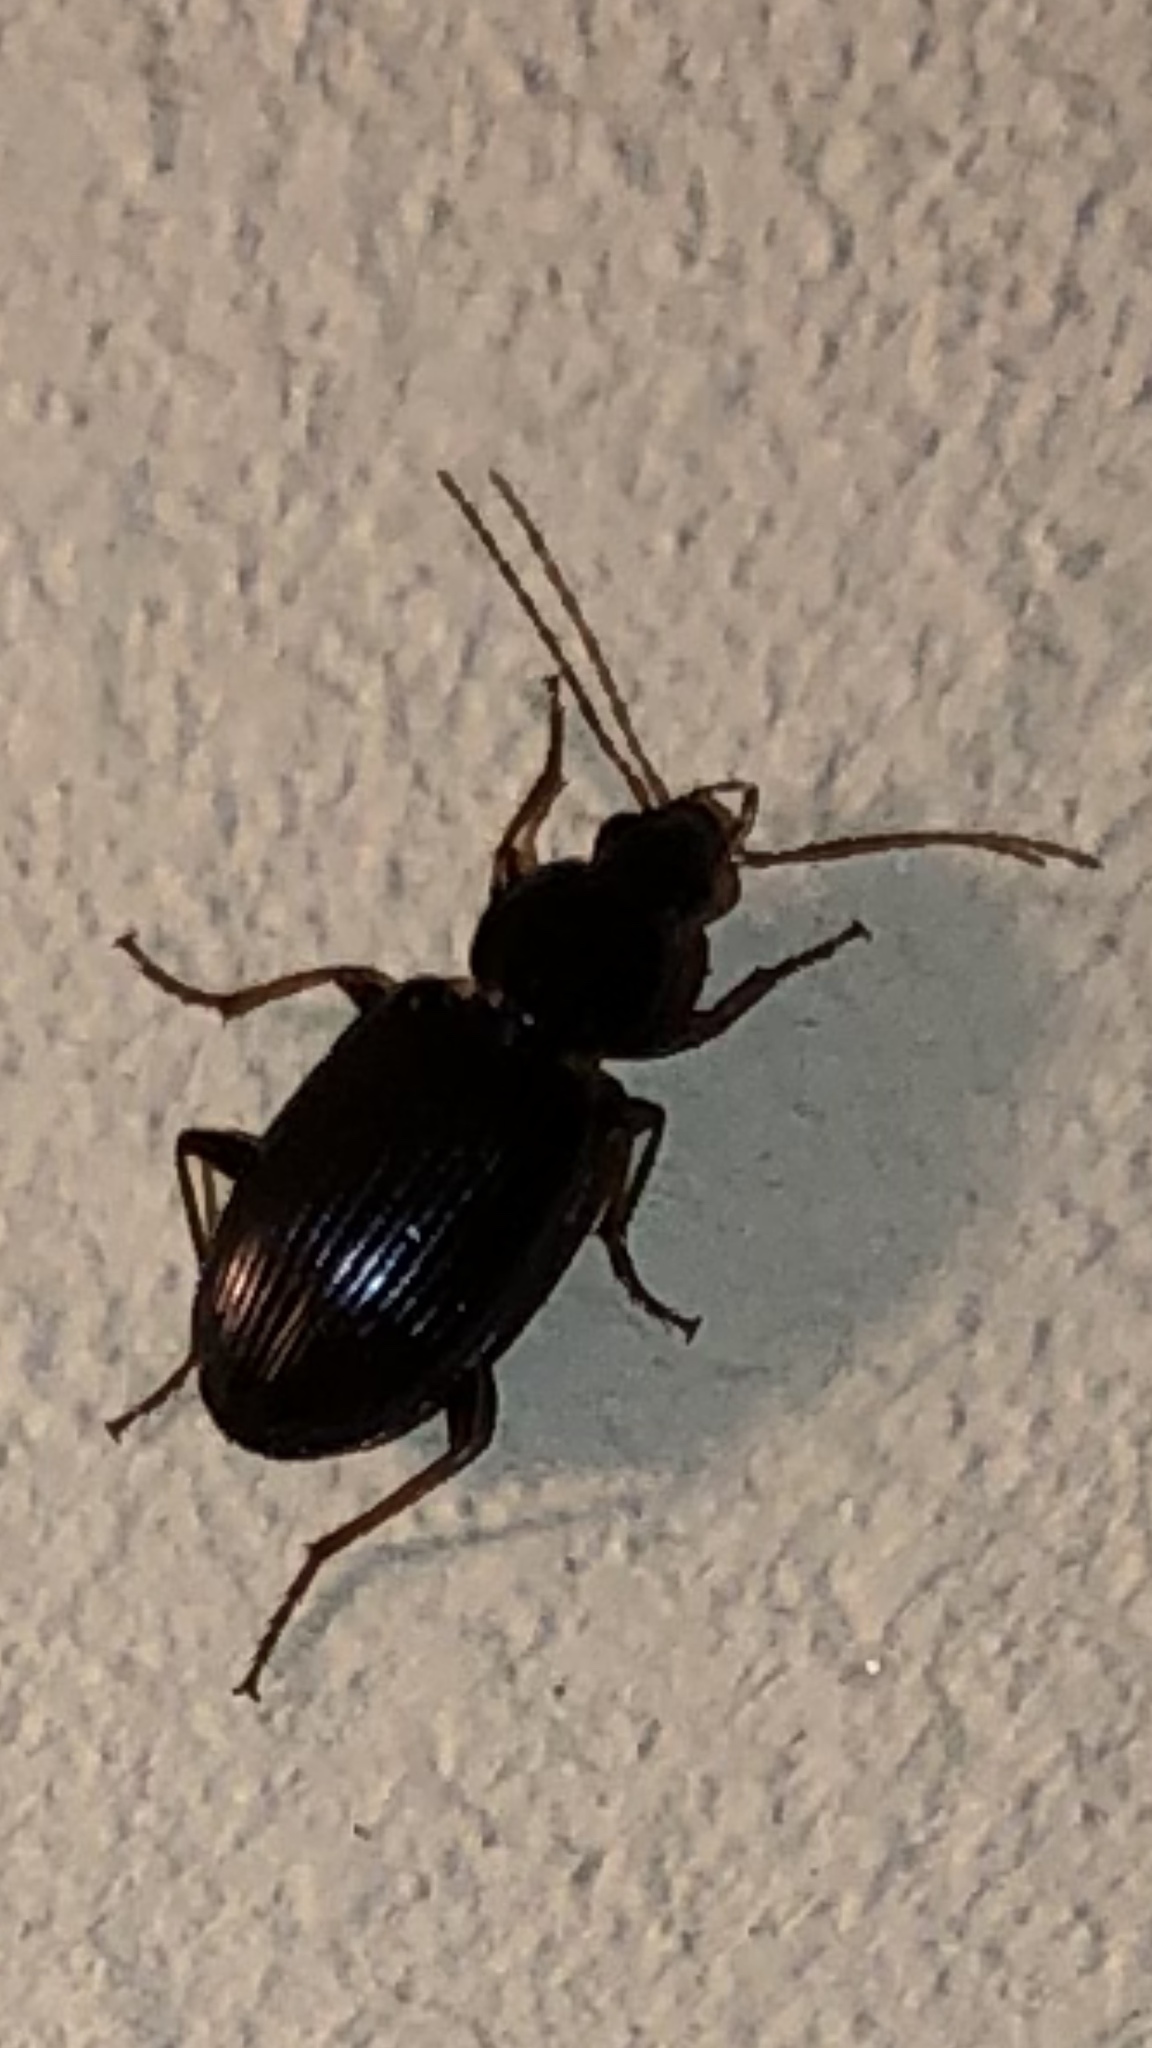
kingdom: Animalia
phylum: Arthropoda
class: Insecta
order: Coleoptera
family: Carabidae
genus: Agonum
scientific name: Agonum punctiforme
